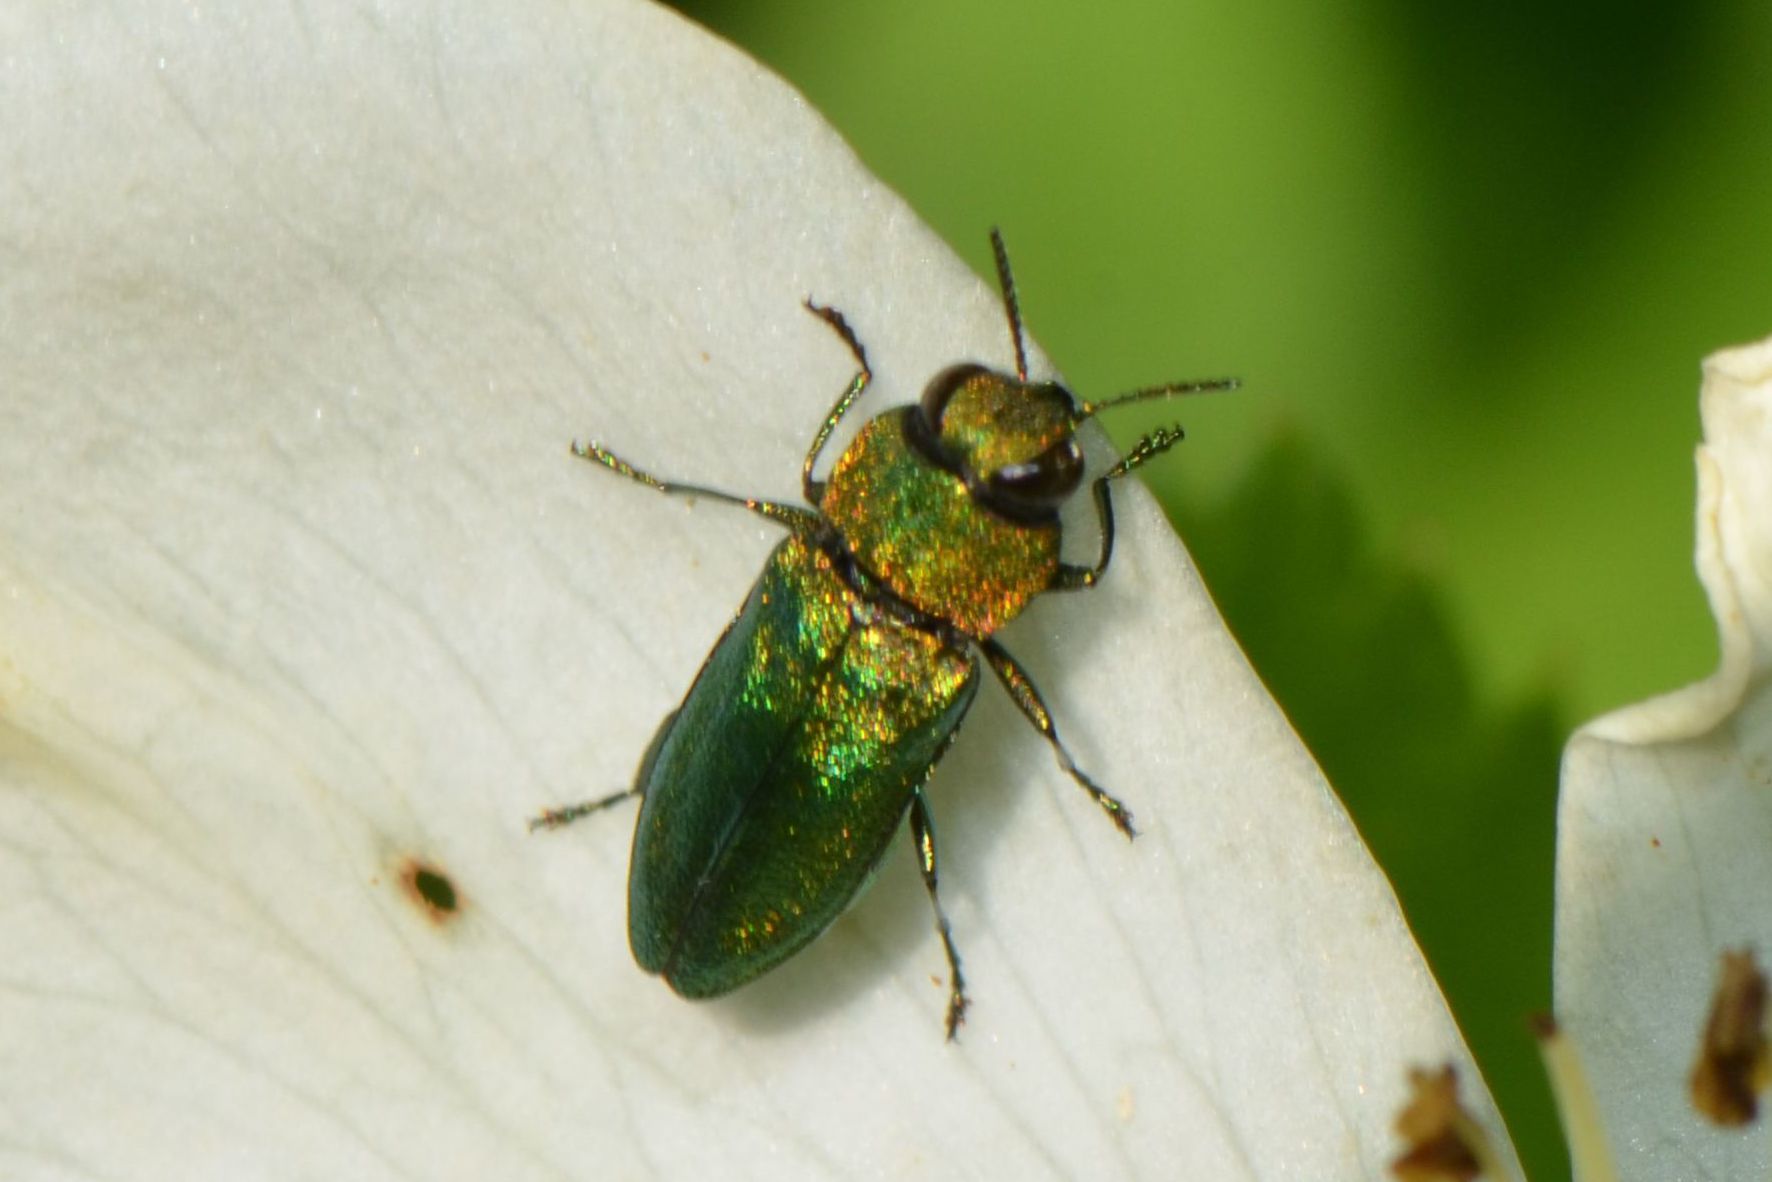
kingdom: Animalia
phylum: Arthropoda
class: Insecta
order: Coleoptera
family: Buprestidae
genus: Anthaxia
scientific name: Anthaxia nitidula
